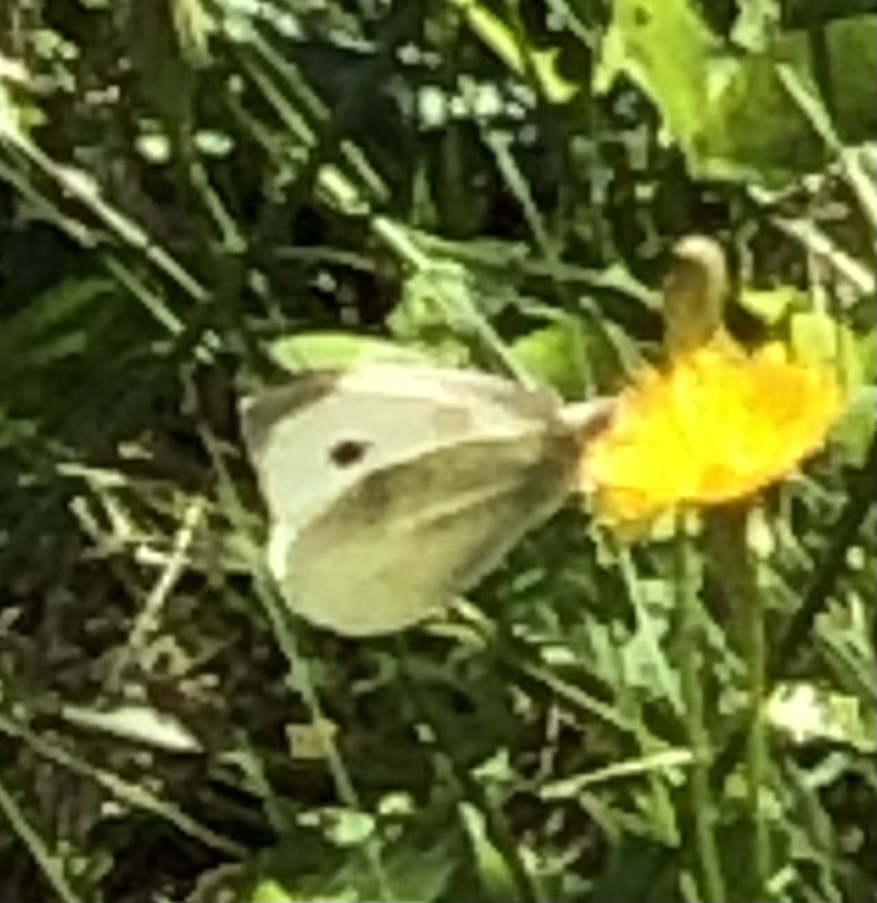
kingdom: Animalia
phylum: Arthropoda
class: Insecta
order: Lepidoptera
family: Pieridae
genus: Pieris
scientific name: Pieris rapae
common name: Small white
